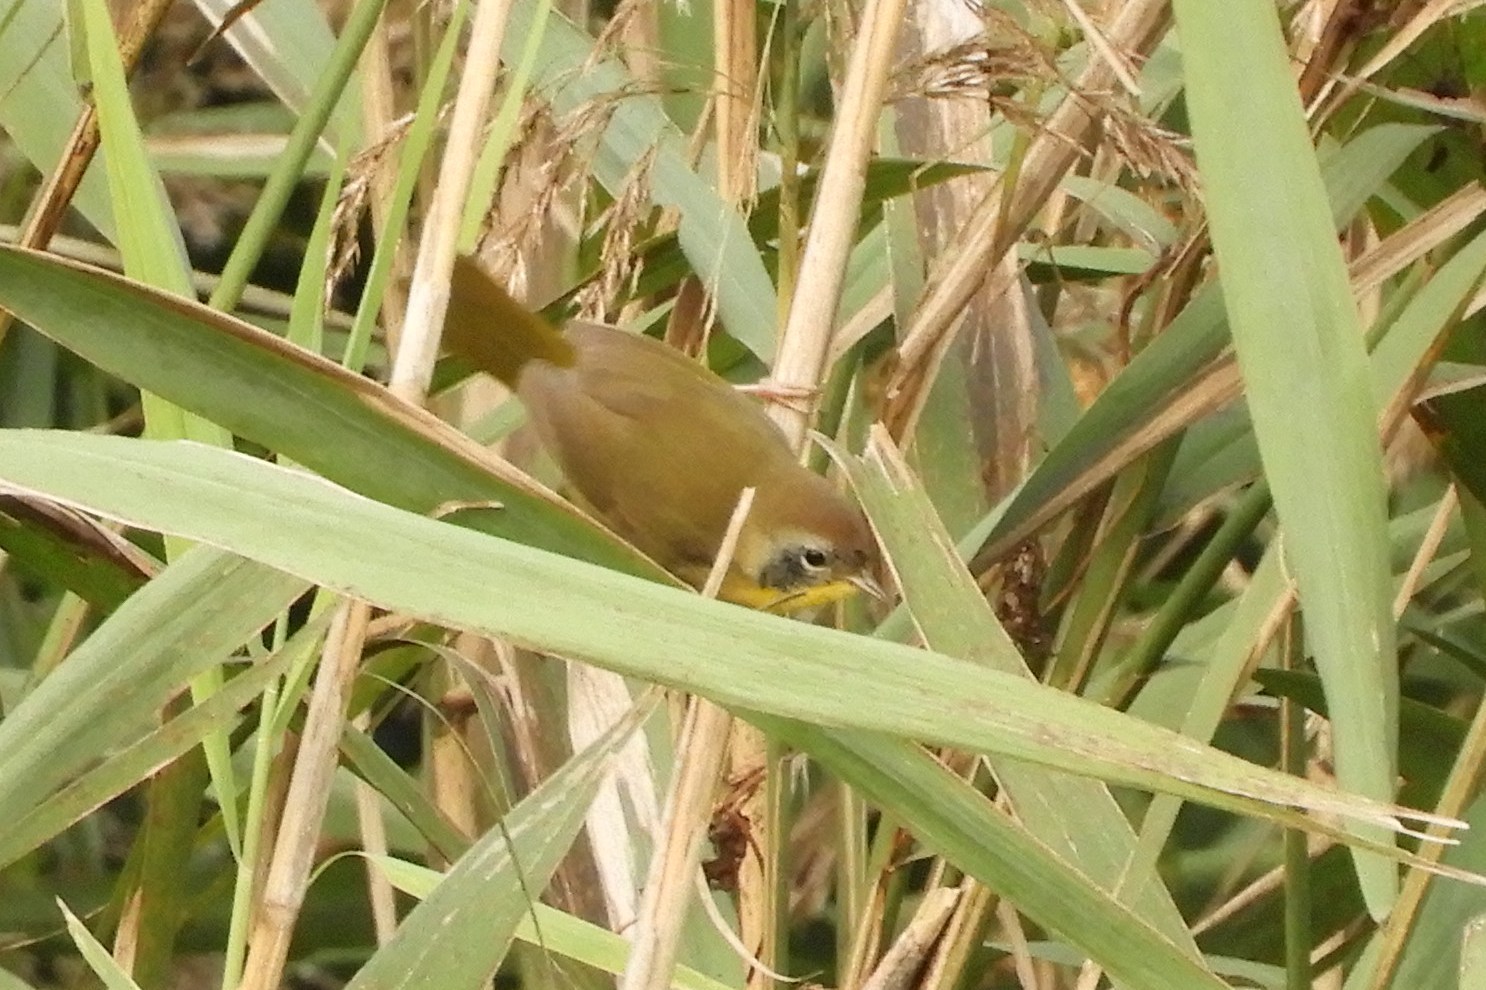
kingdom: Animalia
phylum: Chordata
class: Aves
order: Passeriformes
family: Parulidae
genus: Geothlypis
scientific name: Geothlypis trichas
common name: Common yellowthroat
